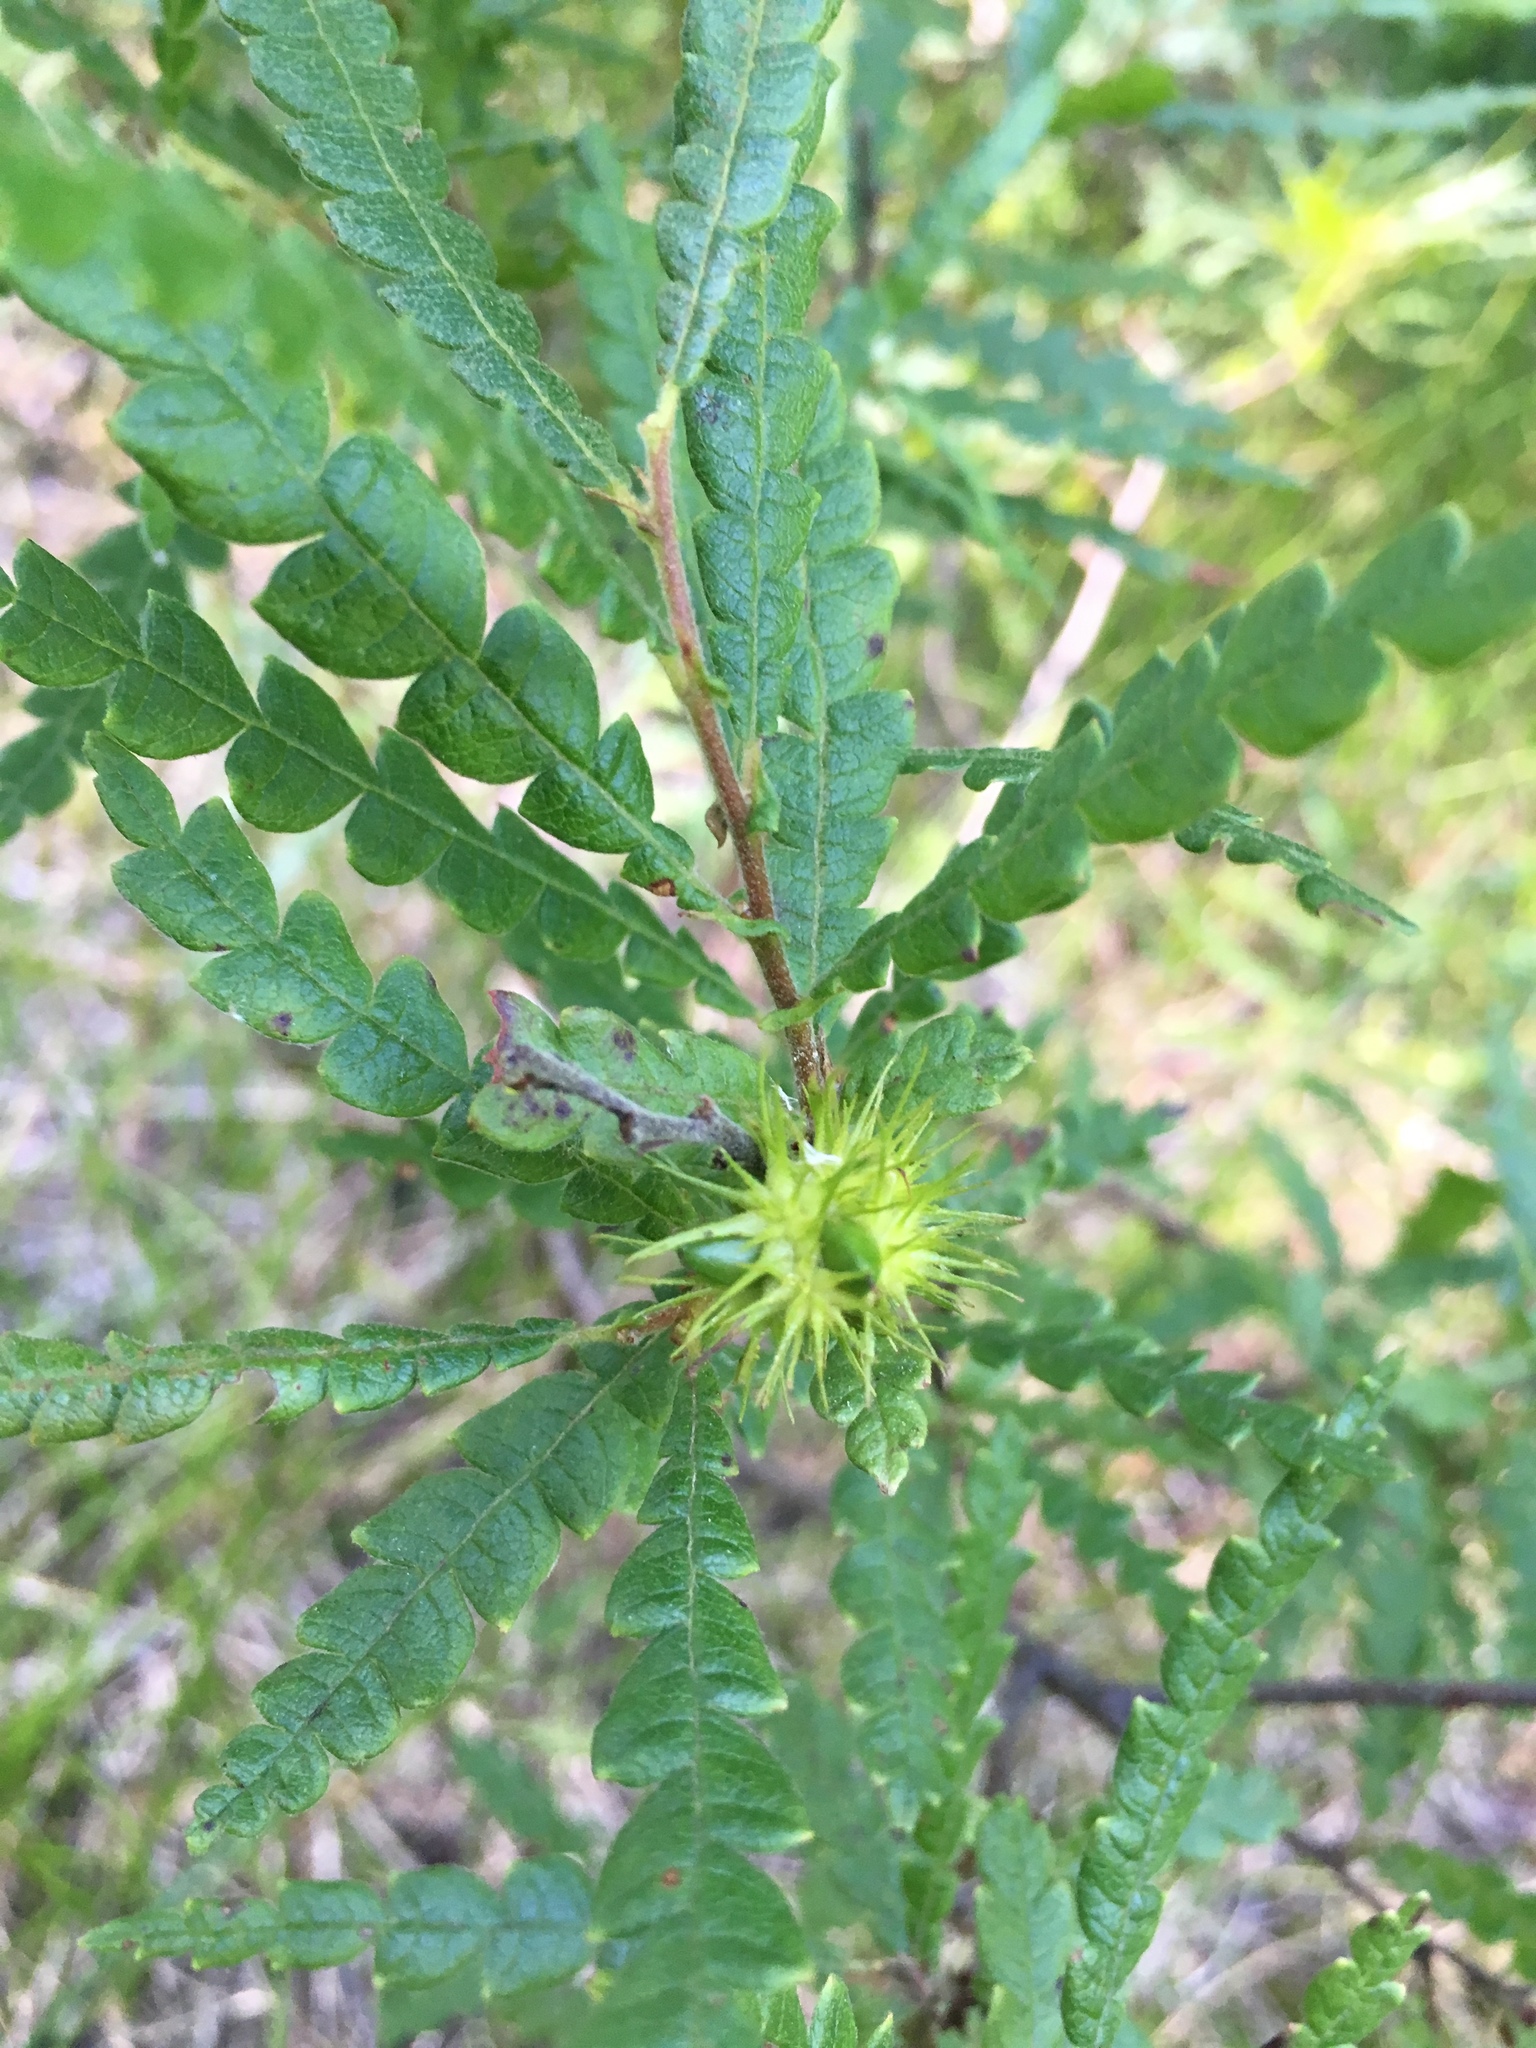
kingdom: Plantae
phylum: Tracheophyta
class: Magnoliopsida
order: Fagales
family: Myricaceae
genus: Comptonia
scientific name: Comptonia peregrina
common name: Sweet-fern
